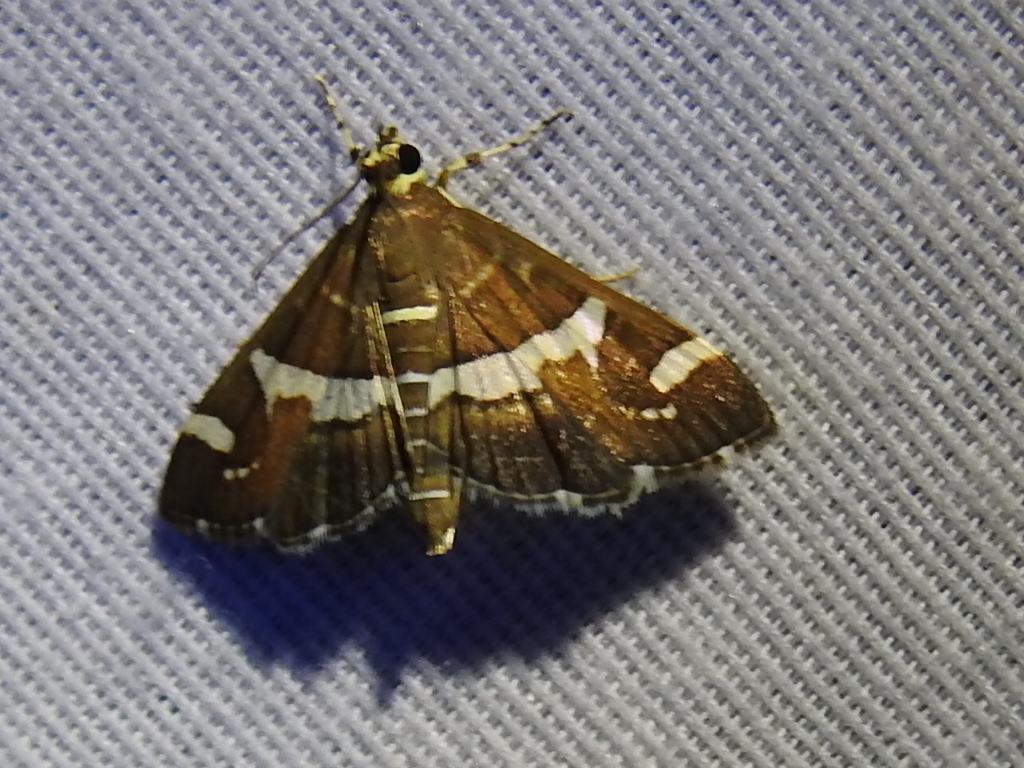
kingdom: Animalia
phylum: Arthropoda
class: Insecta
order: Lepidoptera
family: Crambidae
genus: Spoladea
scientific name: Spoladea recurvalis
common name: Beet webworm moth
